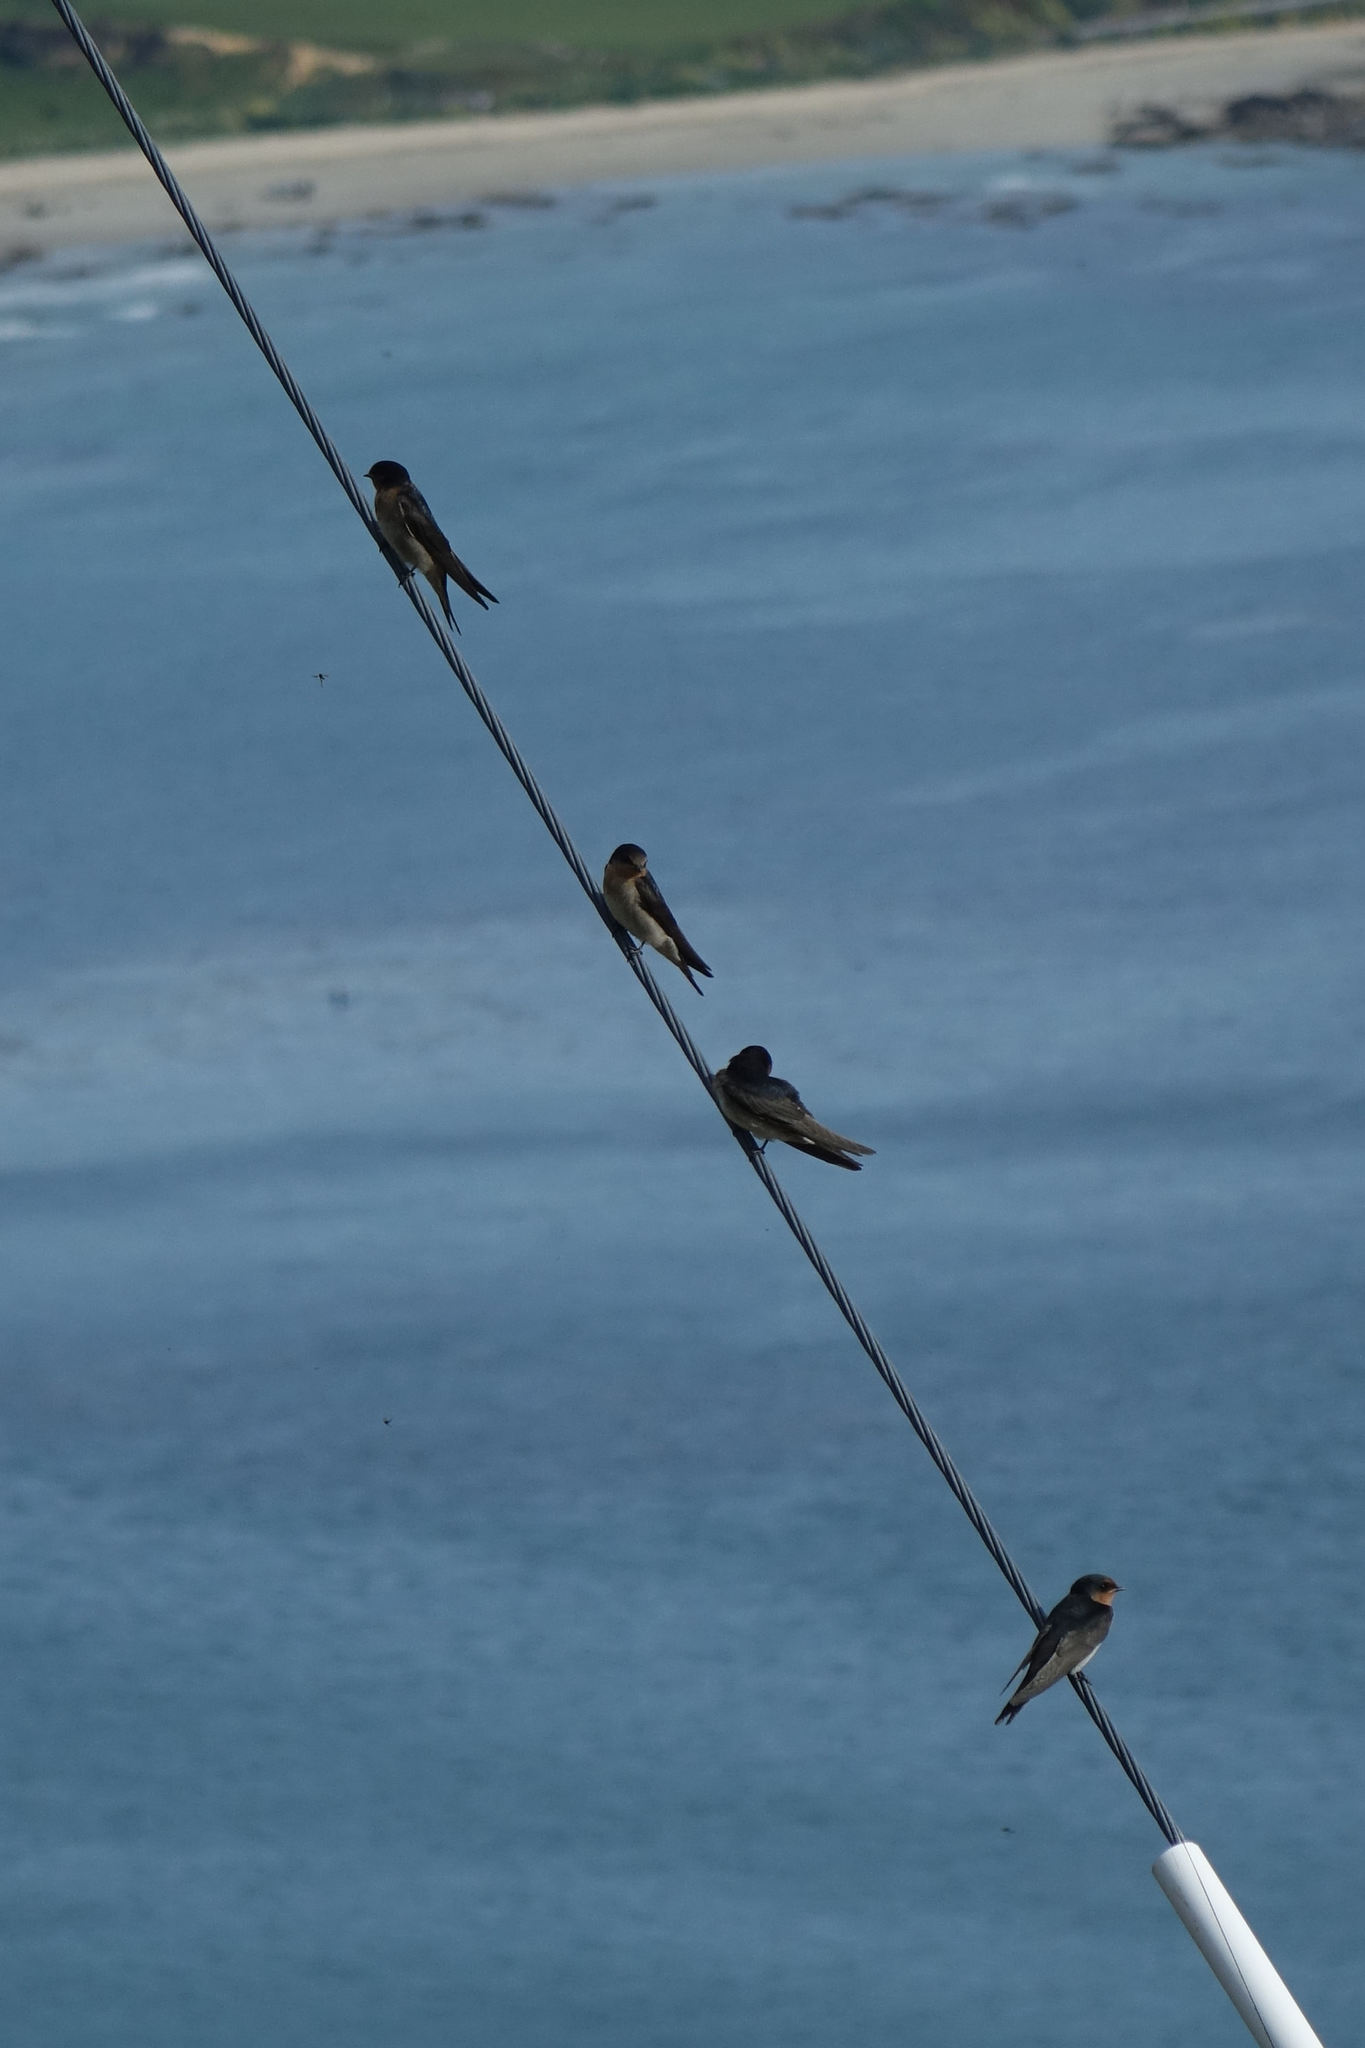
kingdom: Animalia
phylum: Chordata
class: Aves
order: Passeriformes
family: Hirundinidae
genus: Hirundo
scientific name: Hirundo neoxena
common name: Welcome swallow
